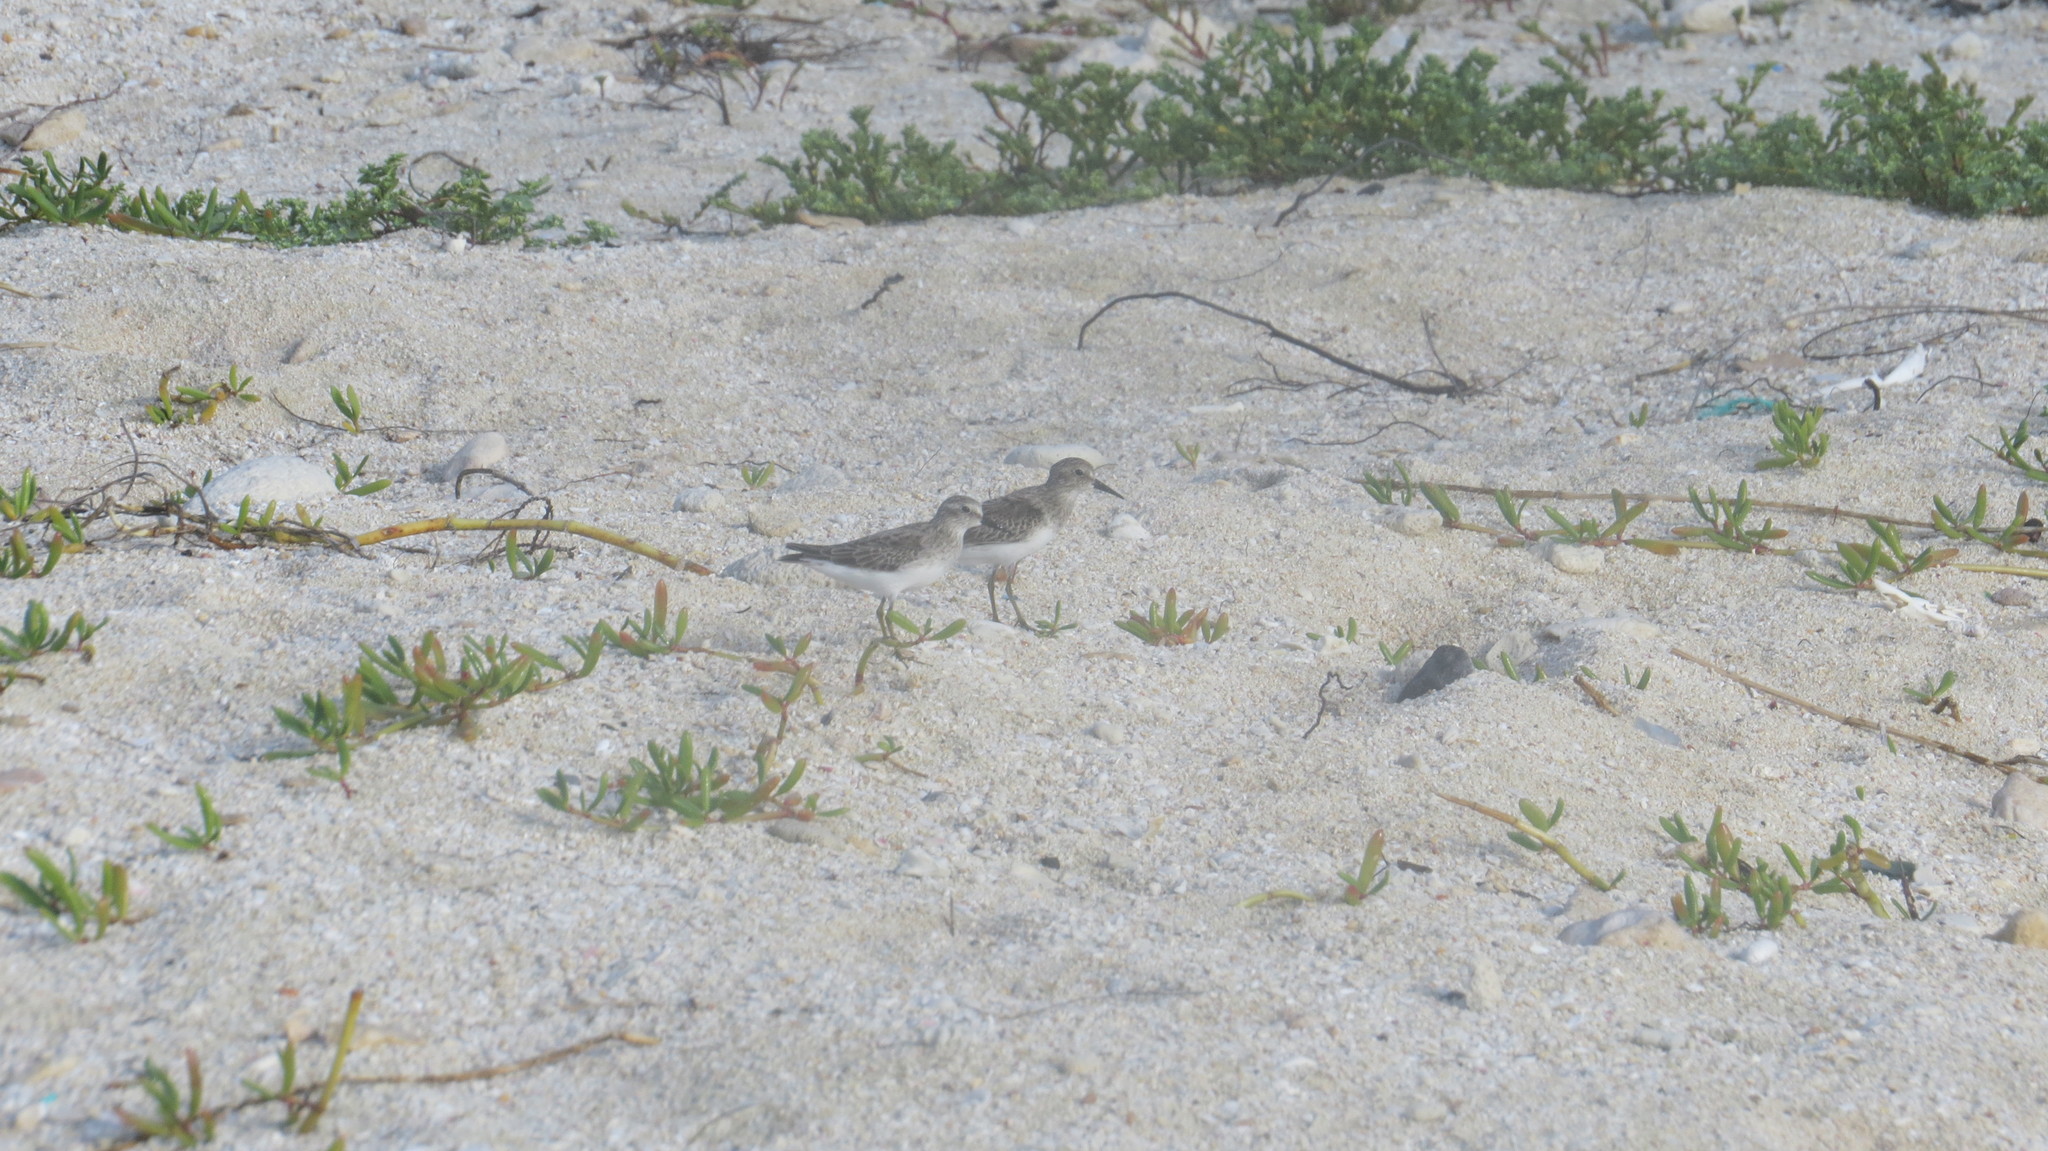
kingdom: Animalia
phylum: Chordata
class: Aves
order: Charadriiformes
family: Scolopacidae
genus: Calidris
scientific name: Calidris minutilla
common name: Least sandpiper
